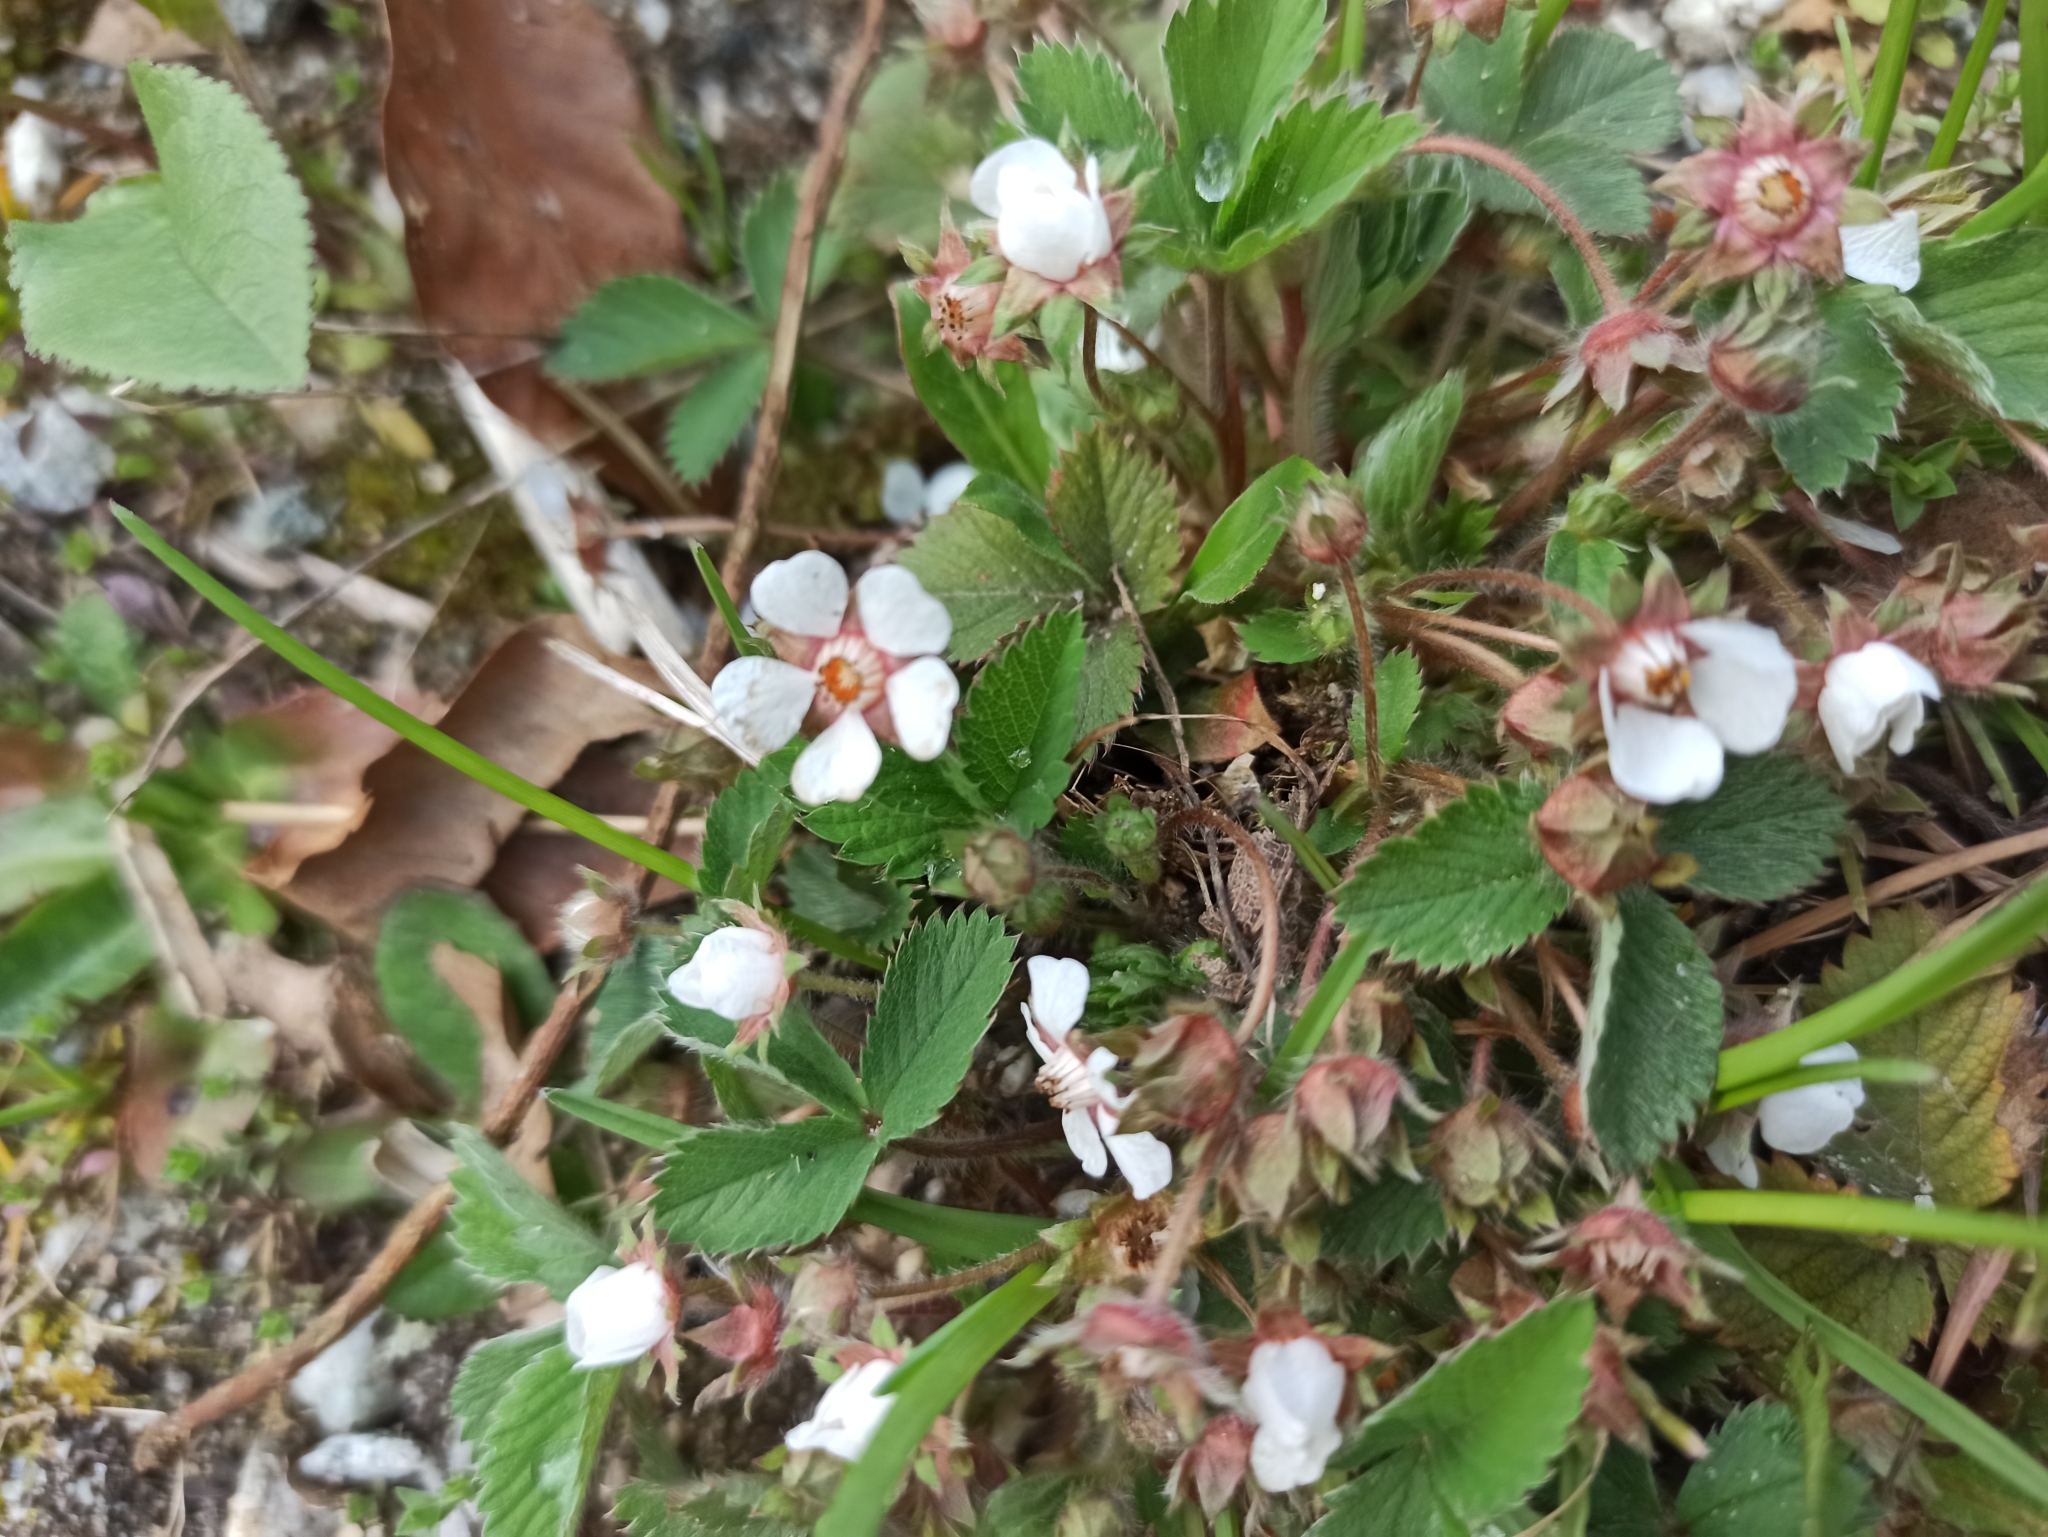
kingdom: Plantae
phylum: Tracheophyta
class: Magnoliopsida
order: Rosales
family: Rosaceae
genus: Potentilla
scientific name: Potentilla micrantha
